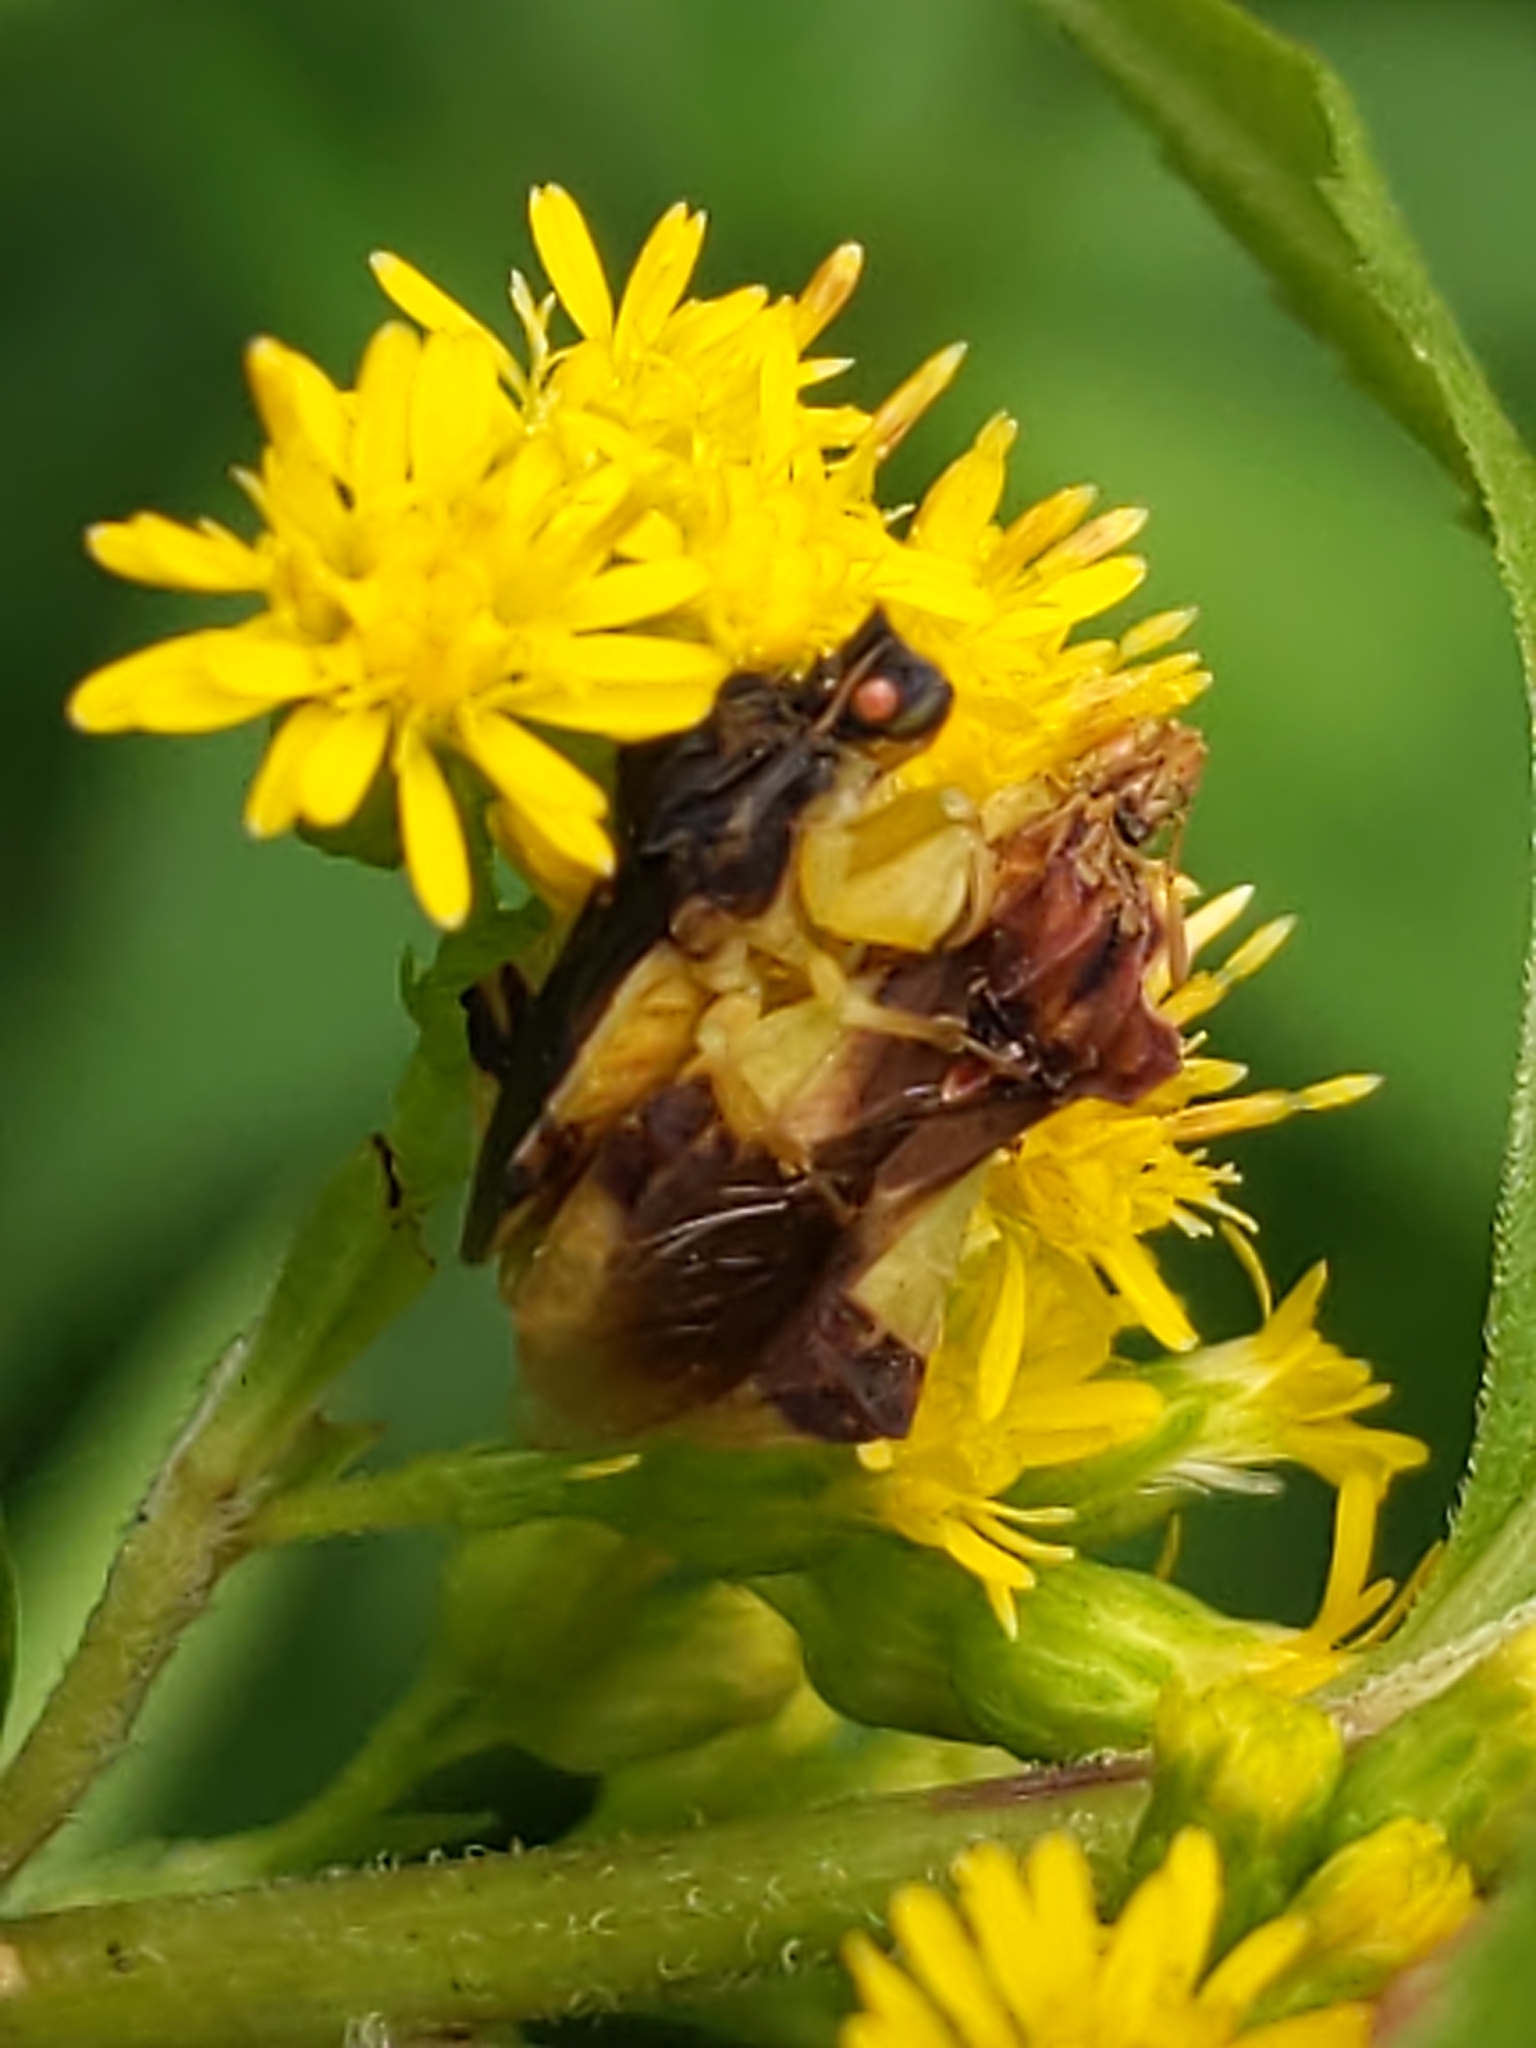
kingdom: Animalia
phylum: Arthropoda
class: Insecta
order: Hemiptera
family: Reduviidae
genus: Phymata
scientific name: Phymata pennsylvanica
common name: Pennsylvania ambush bug
